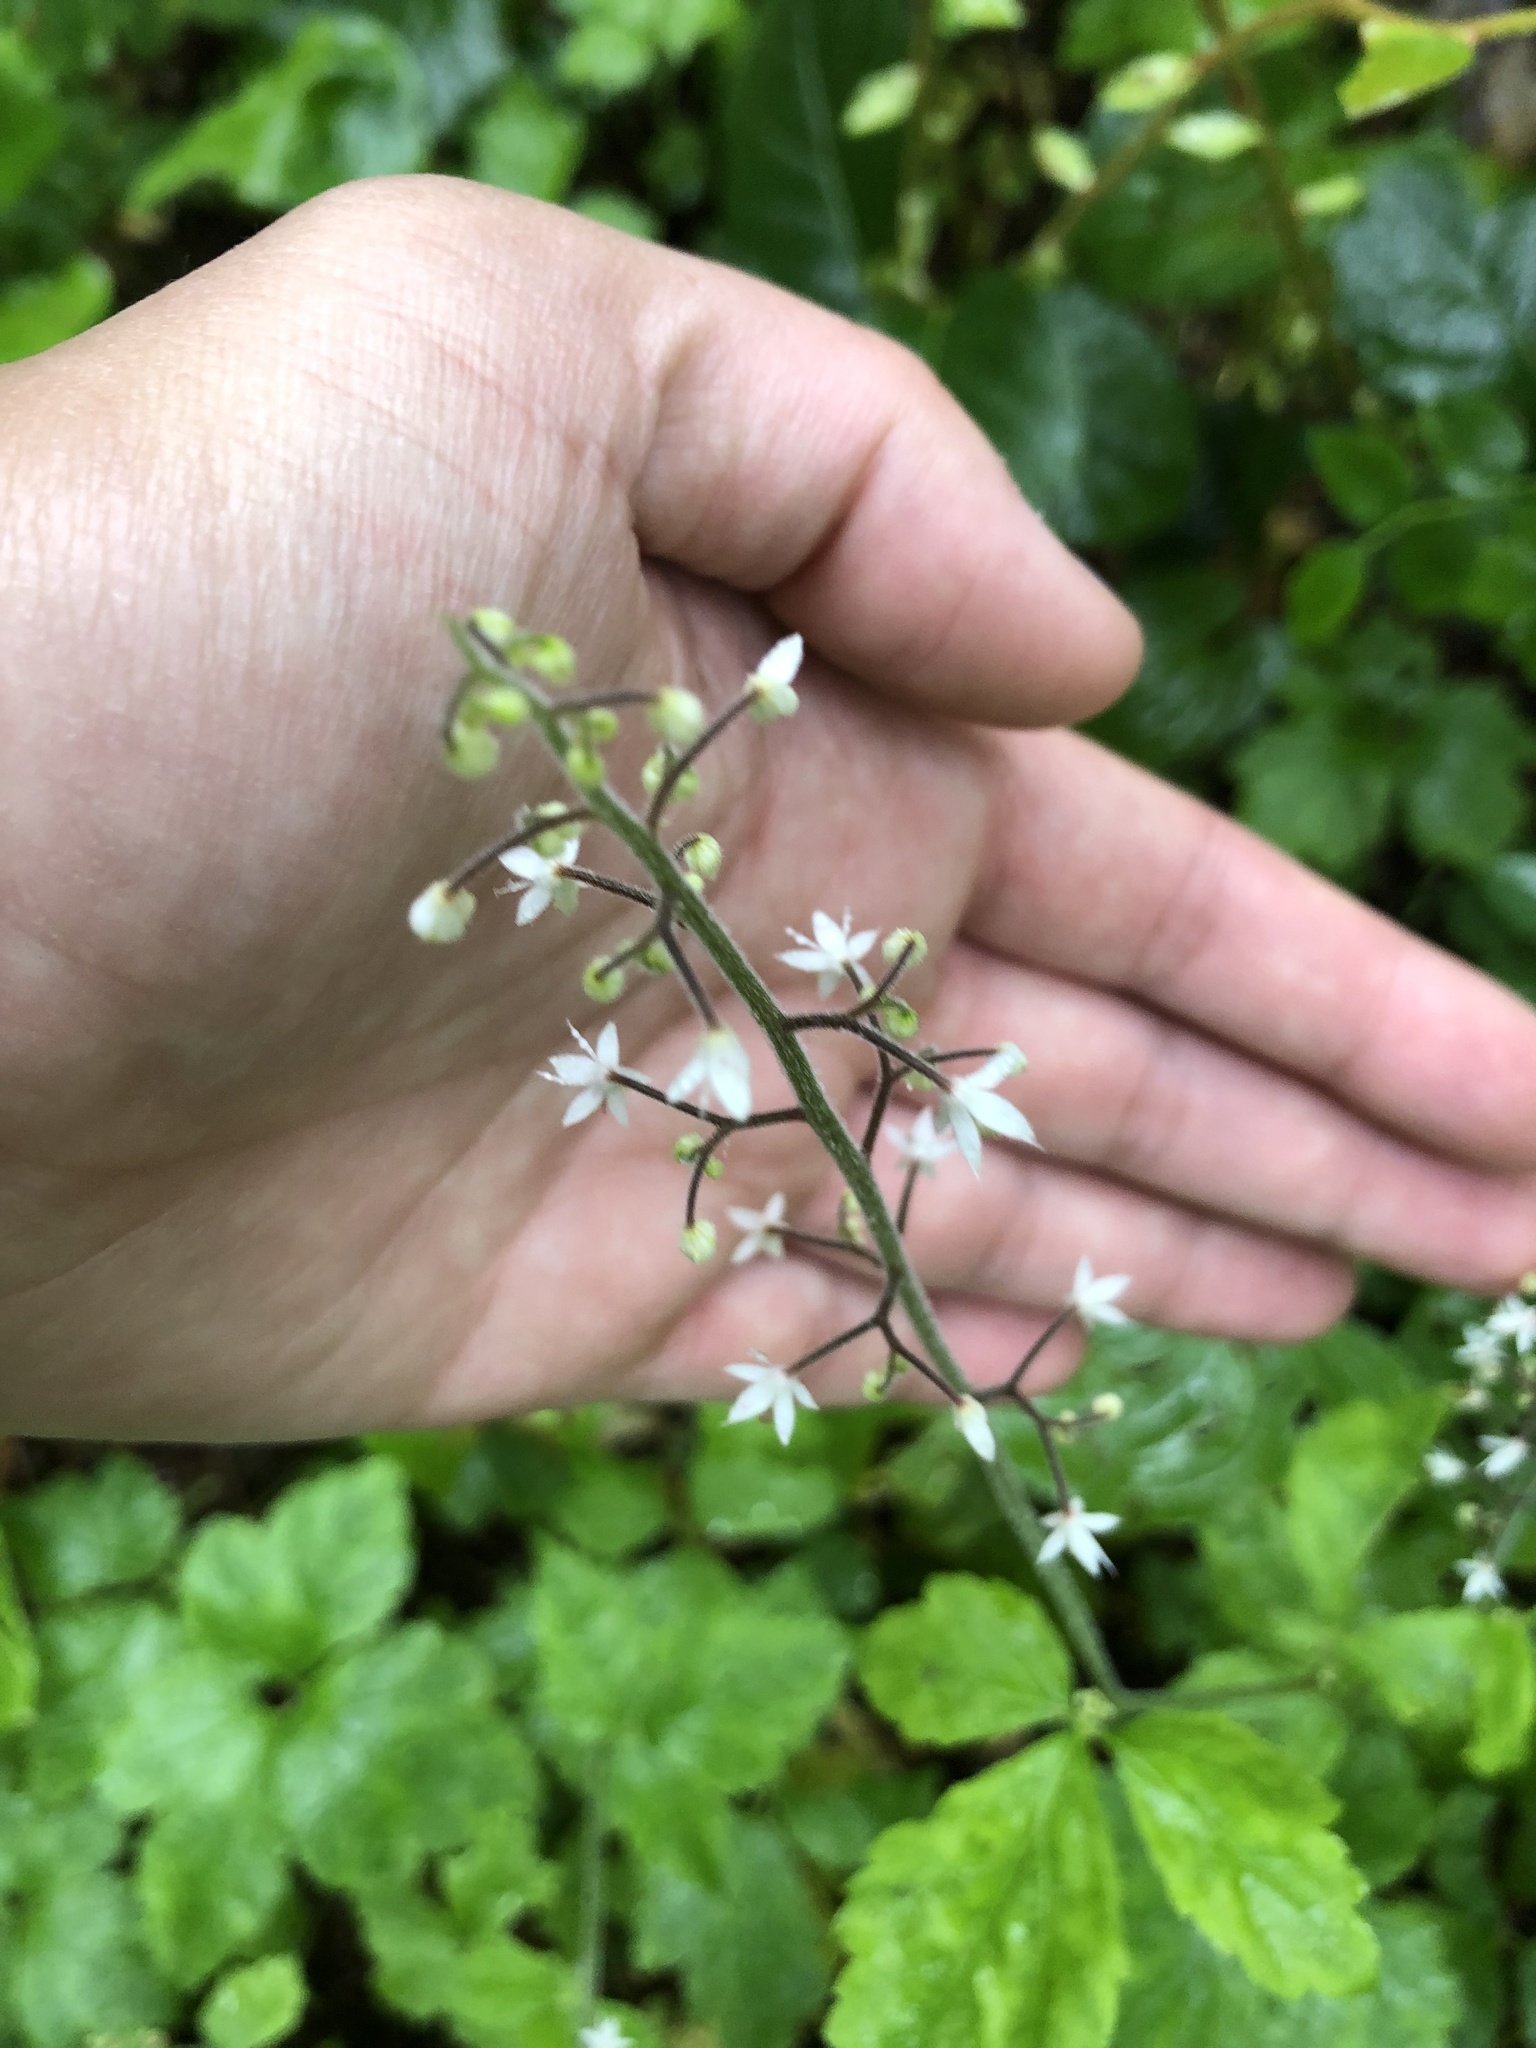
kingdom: Plantae
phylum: Tracheophyta
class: Magnoliopsida
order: Saxifragales
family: Saxifragaceae
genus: Tiarella
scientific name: Tiarella trifoliata
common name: Sugar-scoop
